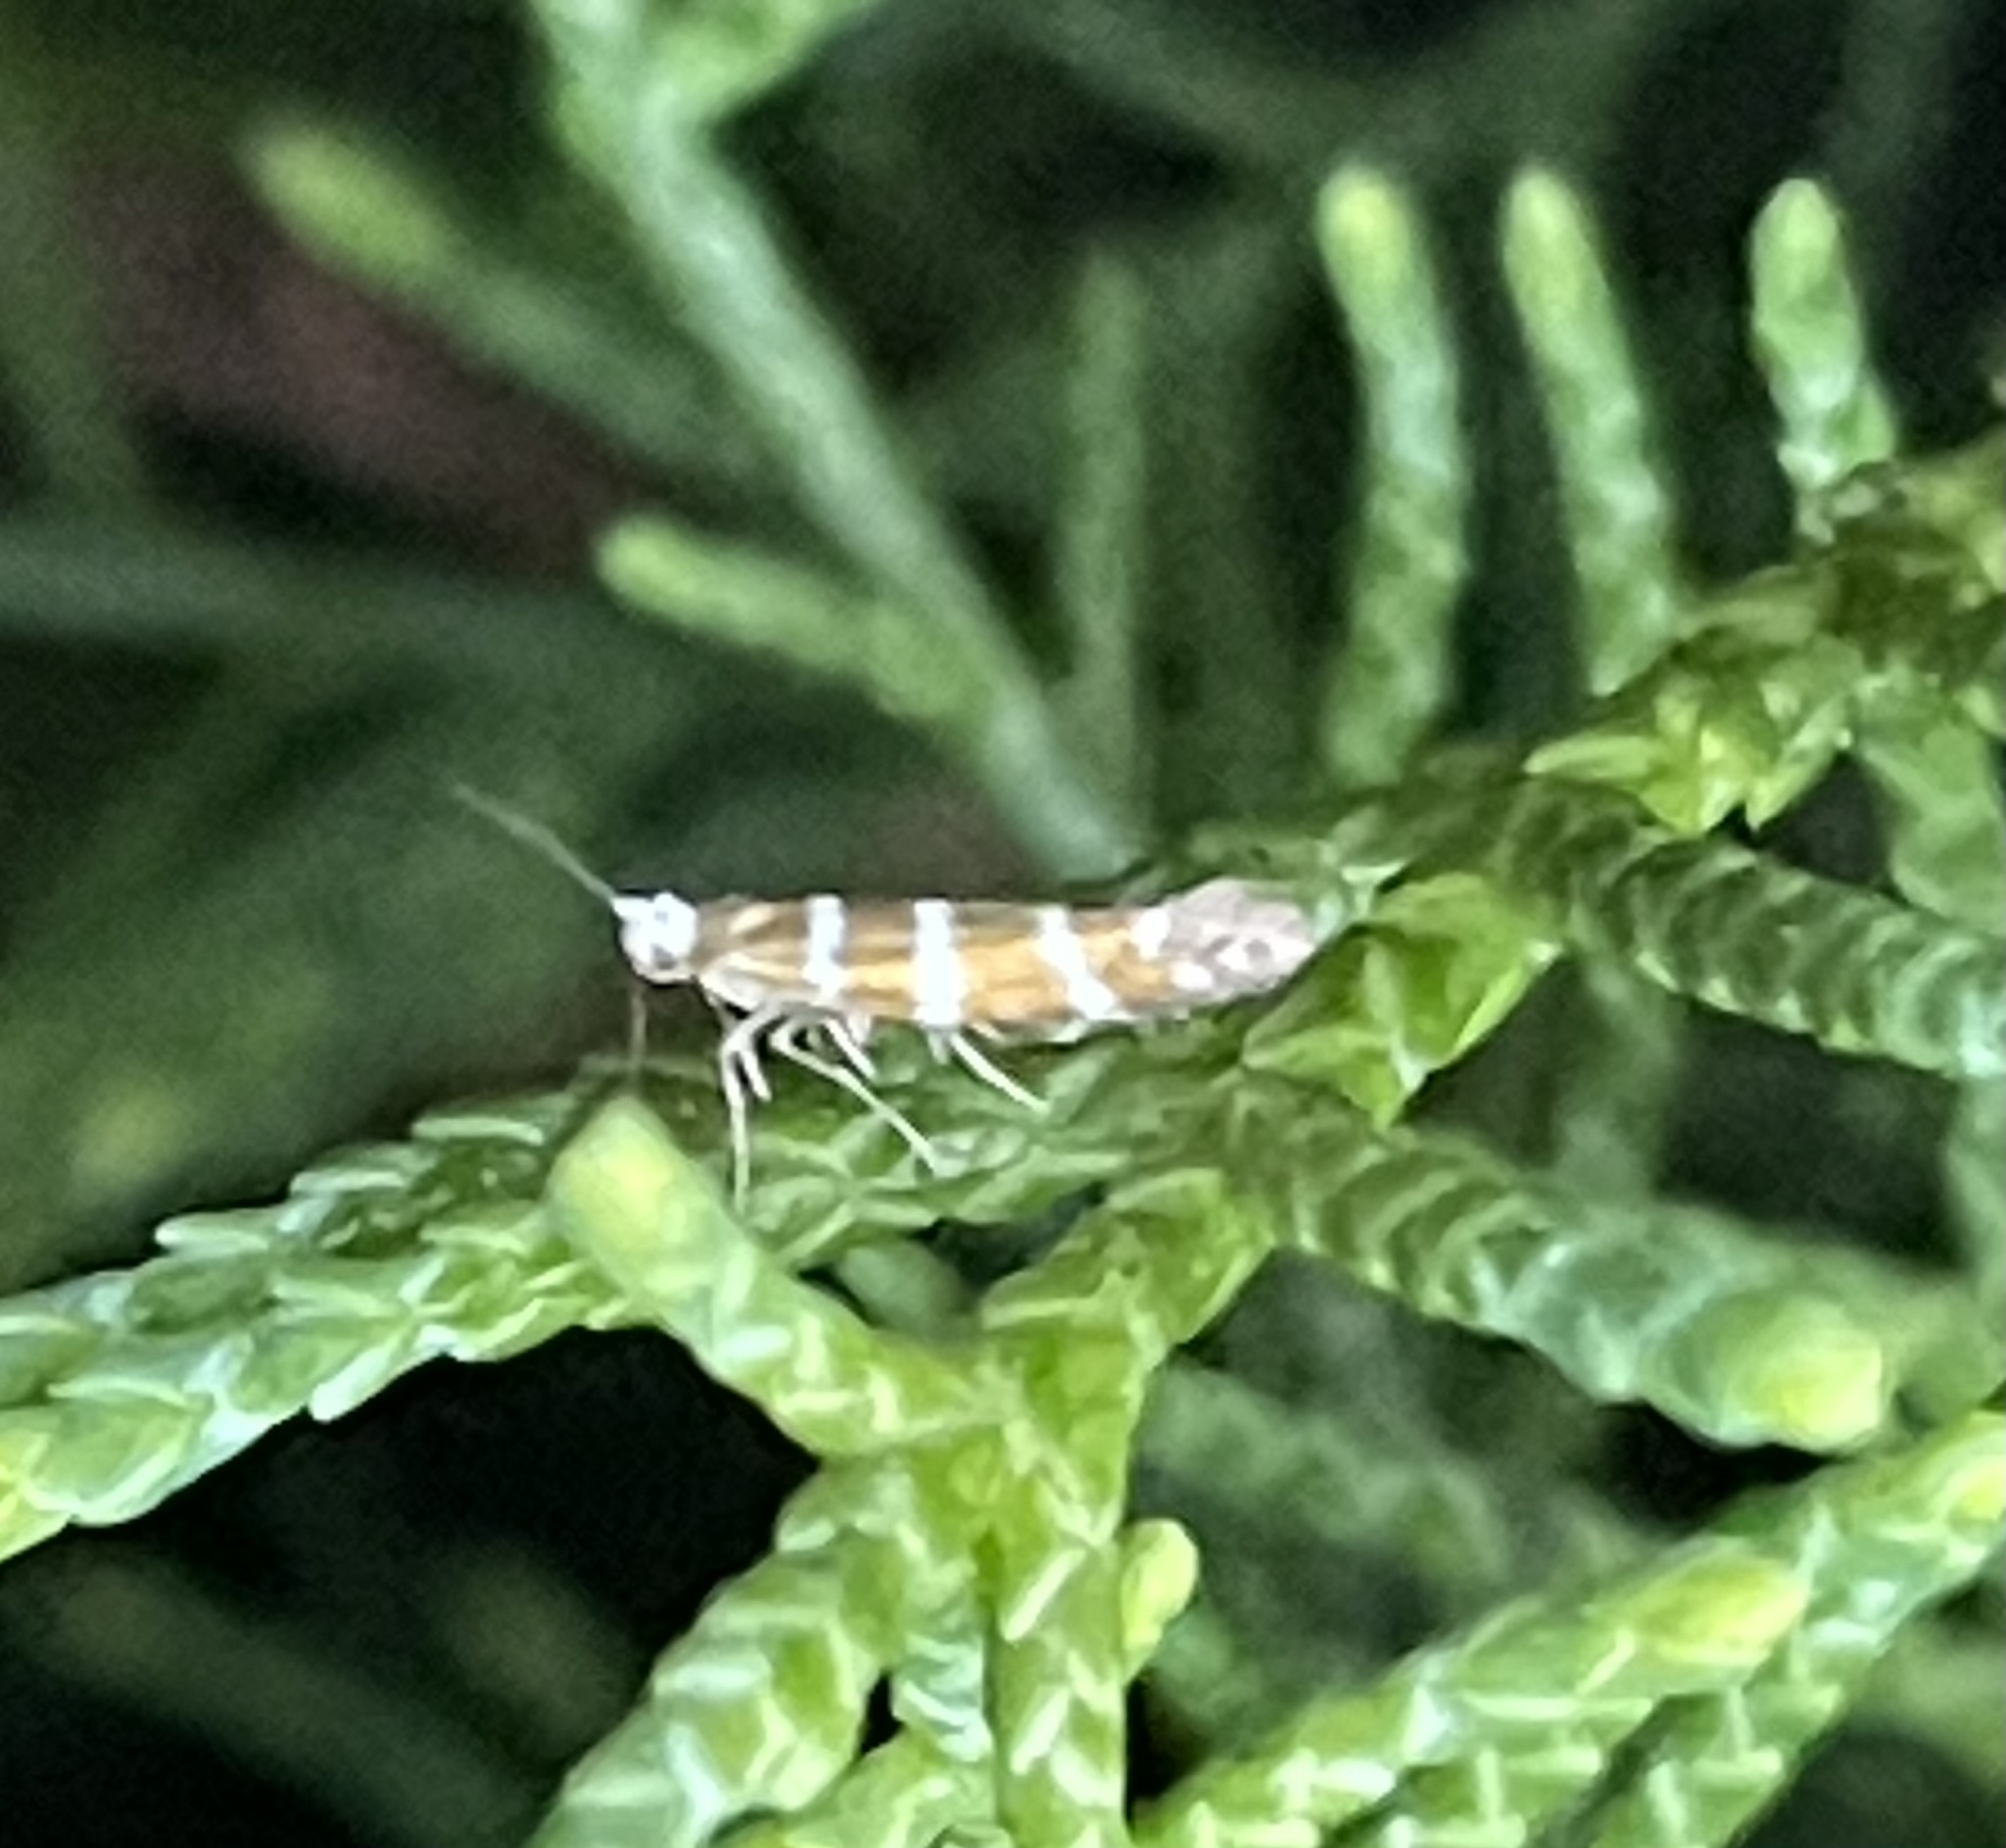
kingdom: Animalia
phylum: Arthropoda
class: Insecta
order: Lepidoptera
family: Argyresthiidae
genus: Argyresthia
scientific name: Argyresthia trifasciata
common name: Triple-barred argent
